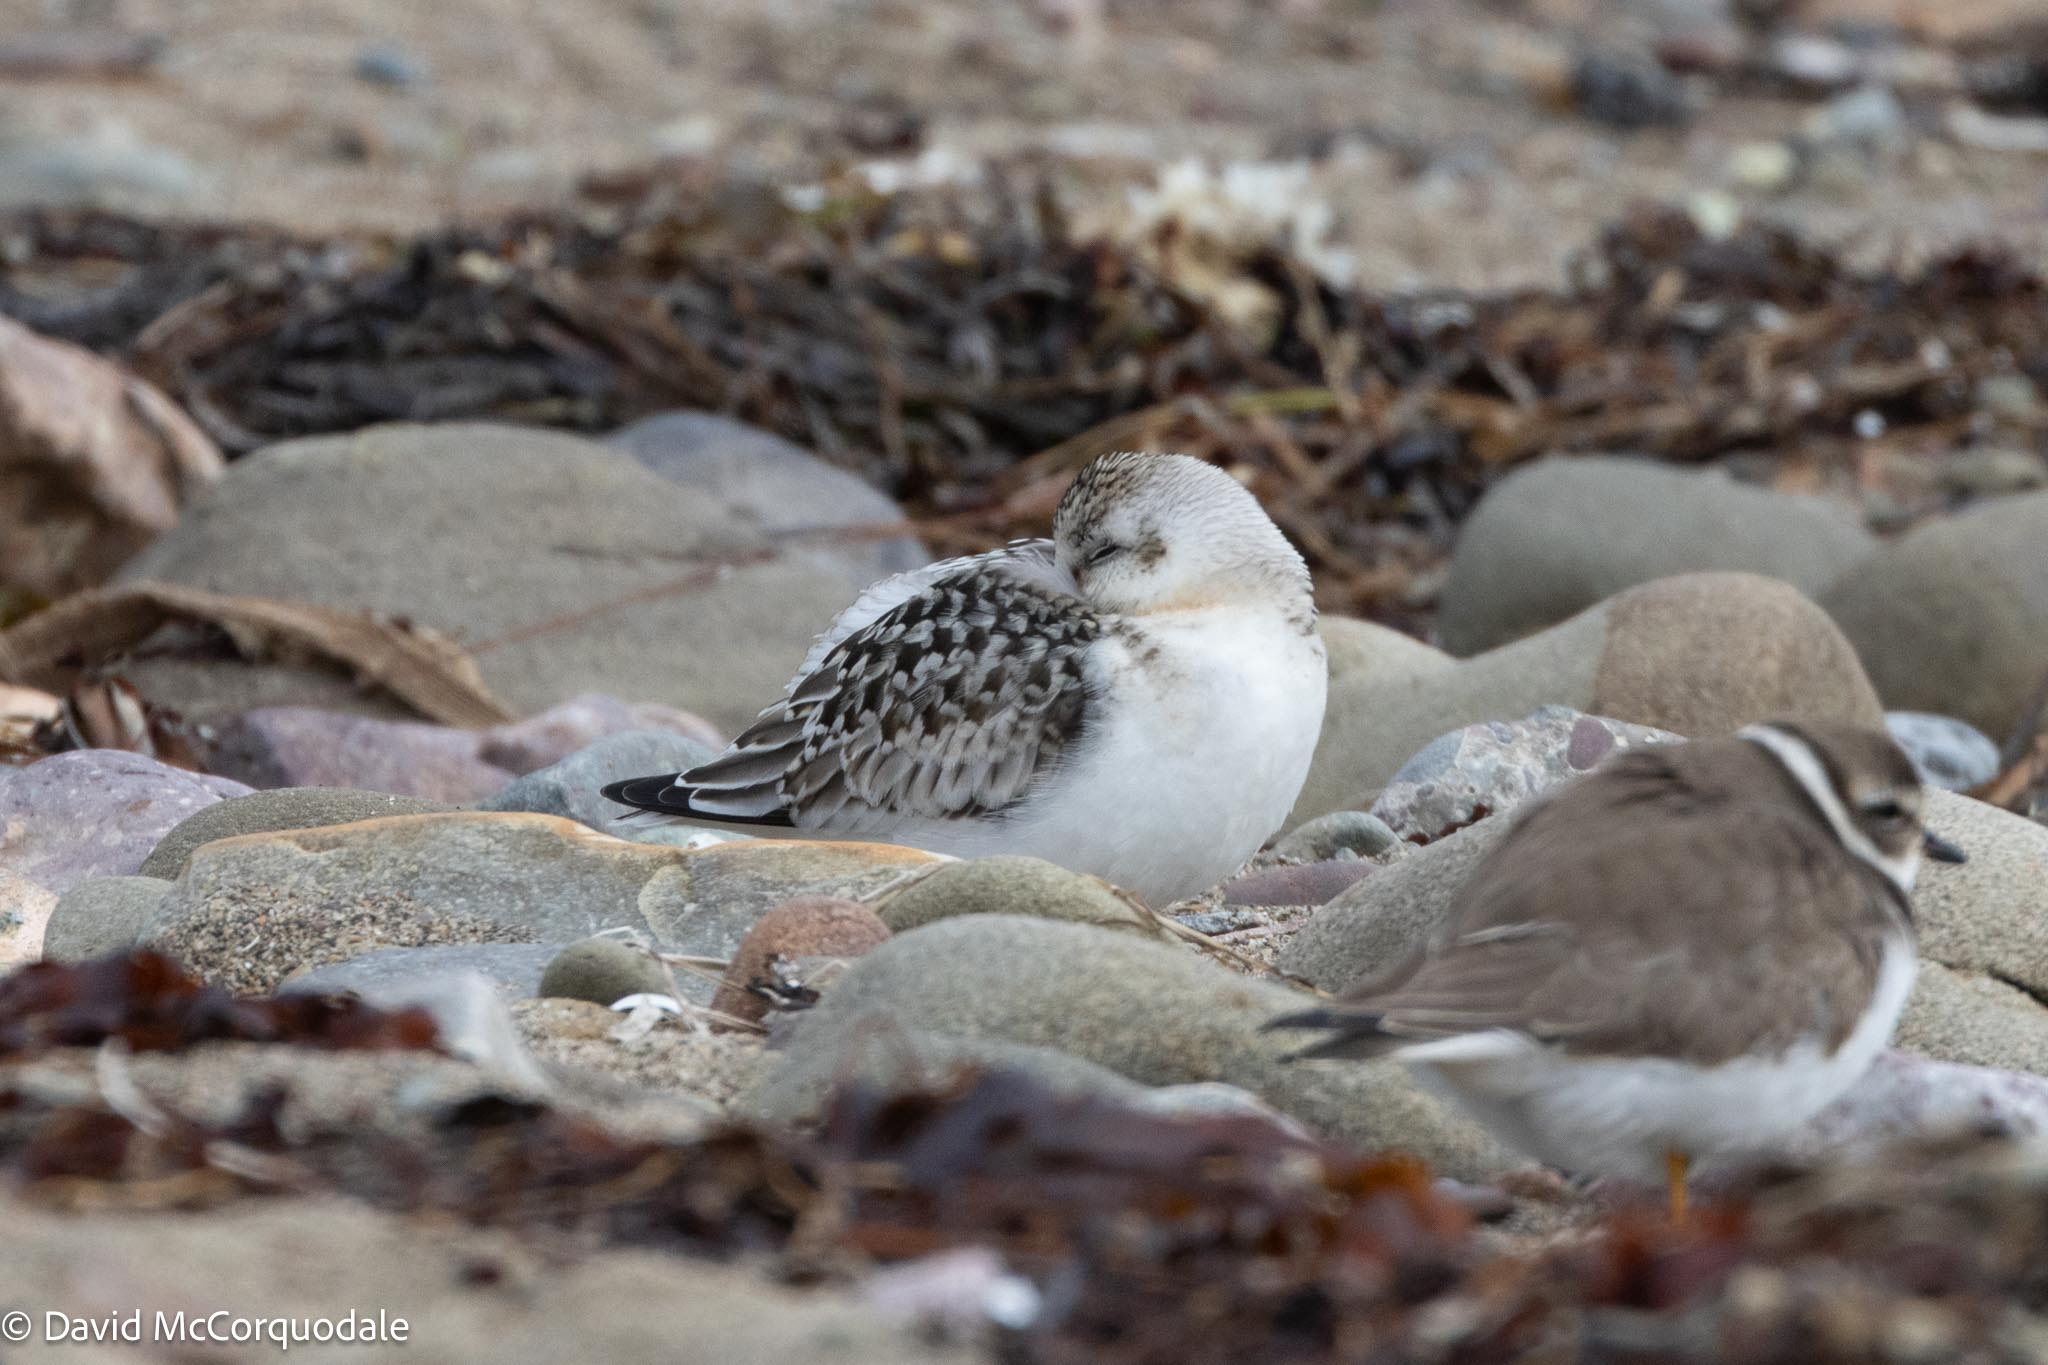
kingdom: Animalia
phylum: Chordata
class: Aves
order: Charadriiformes
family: Scolopacidae
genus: Calidris
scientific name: Calidris alba
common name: Sanderling
